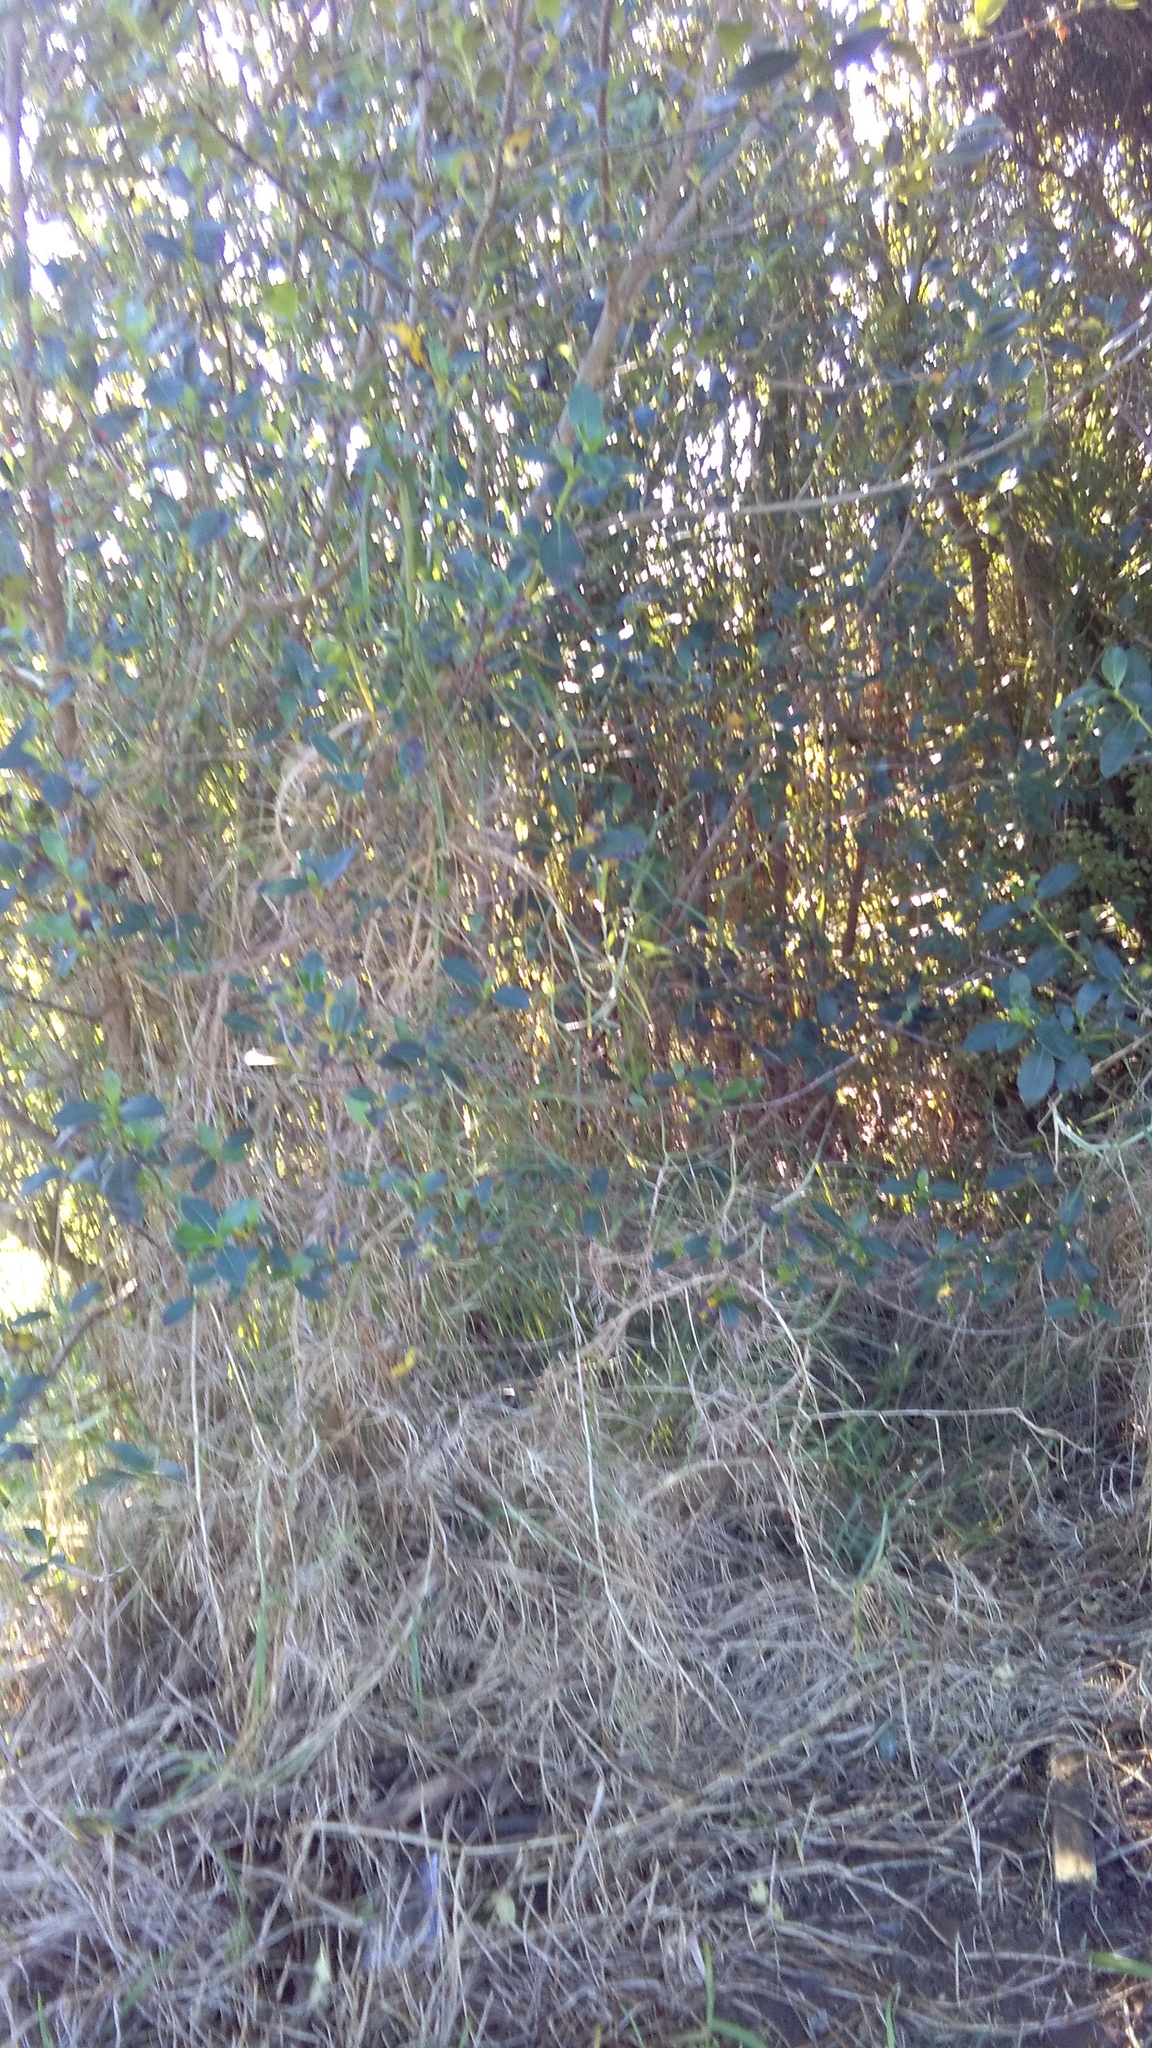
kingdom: Plantae
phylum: Tracheophyta
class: Liliopsida
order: Poales
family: Poaceae
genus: Cenchrus
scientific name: Cenchrus clandestinus
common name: Kikuyugrass
